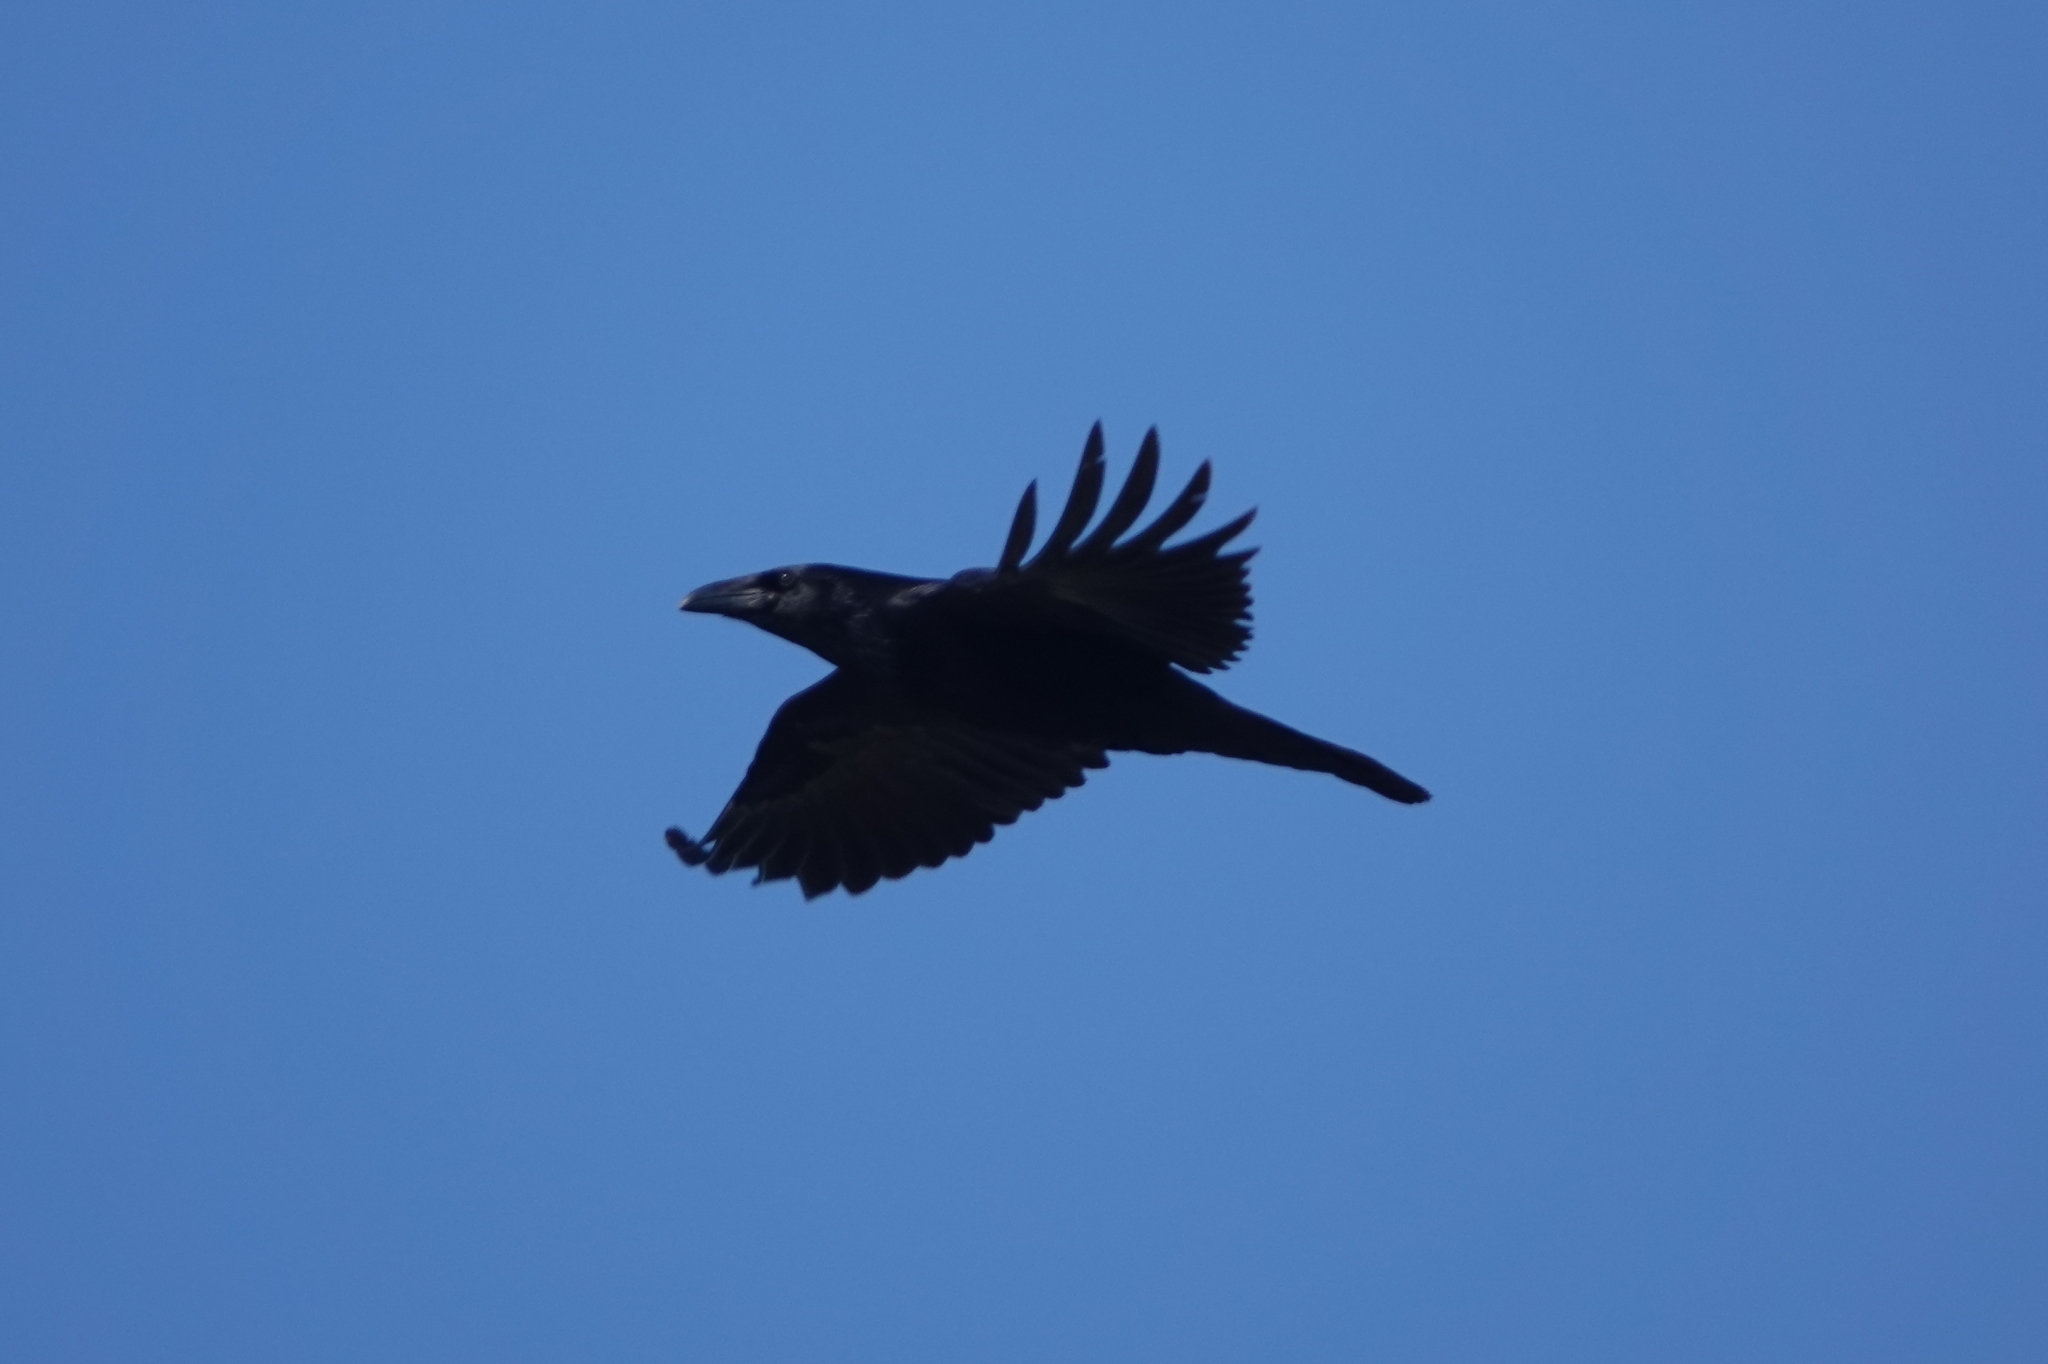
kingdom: Animalia
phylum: Chordata
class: Aves
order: Passeriformes
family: Corvidae
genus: Corvus
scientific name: Corvus corax
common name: Common raven
